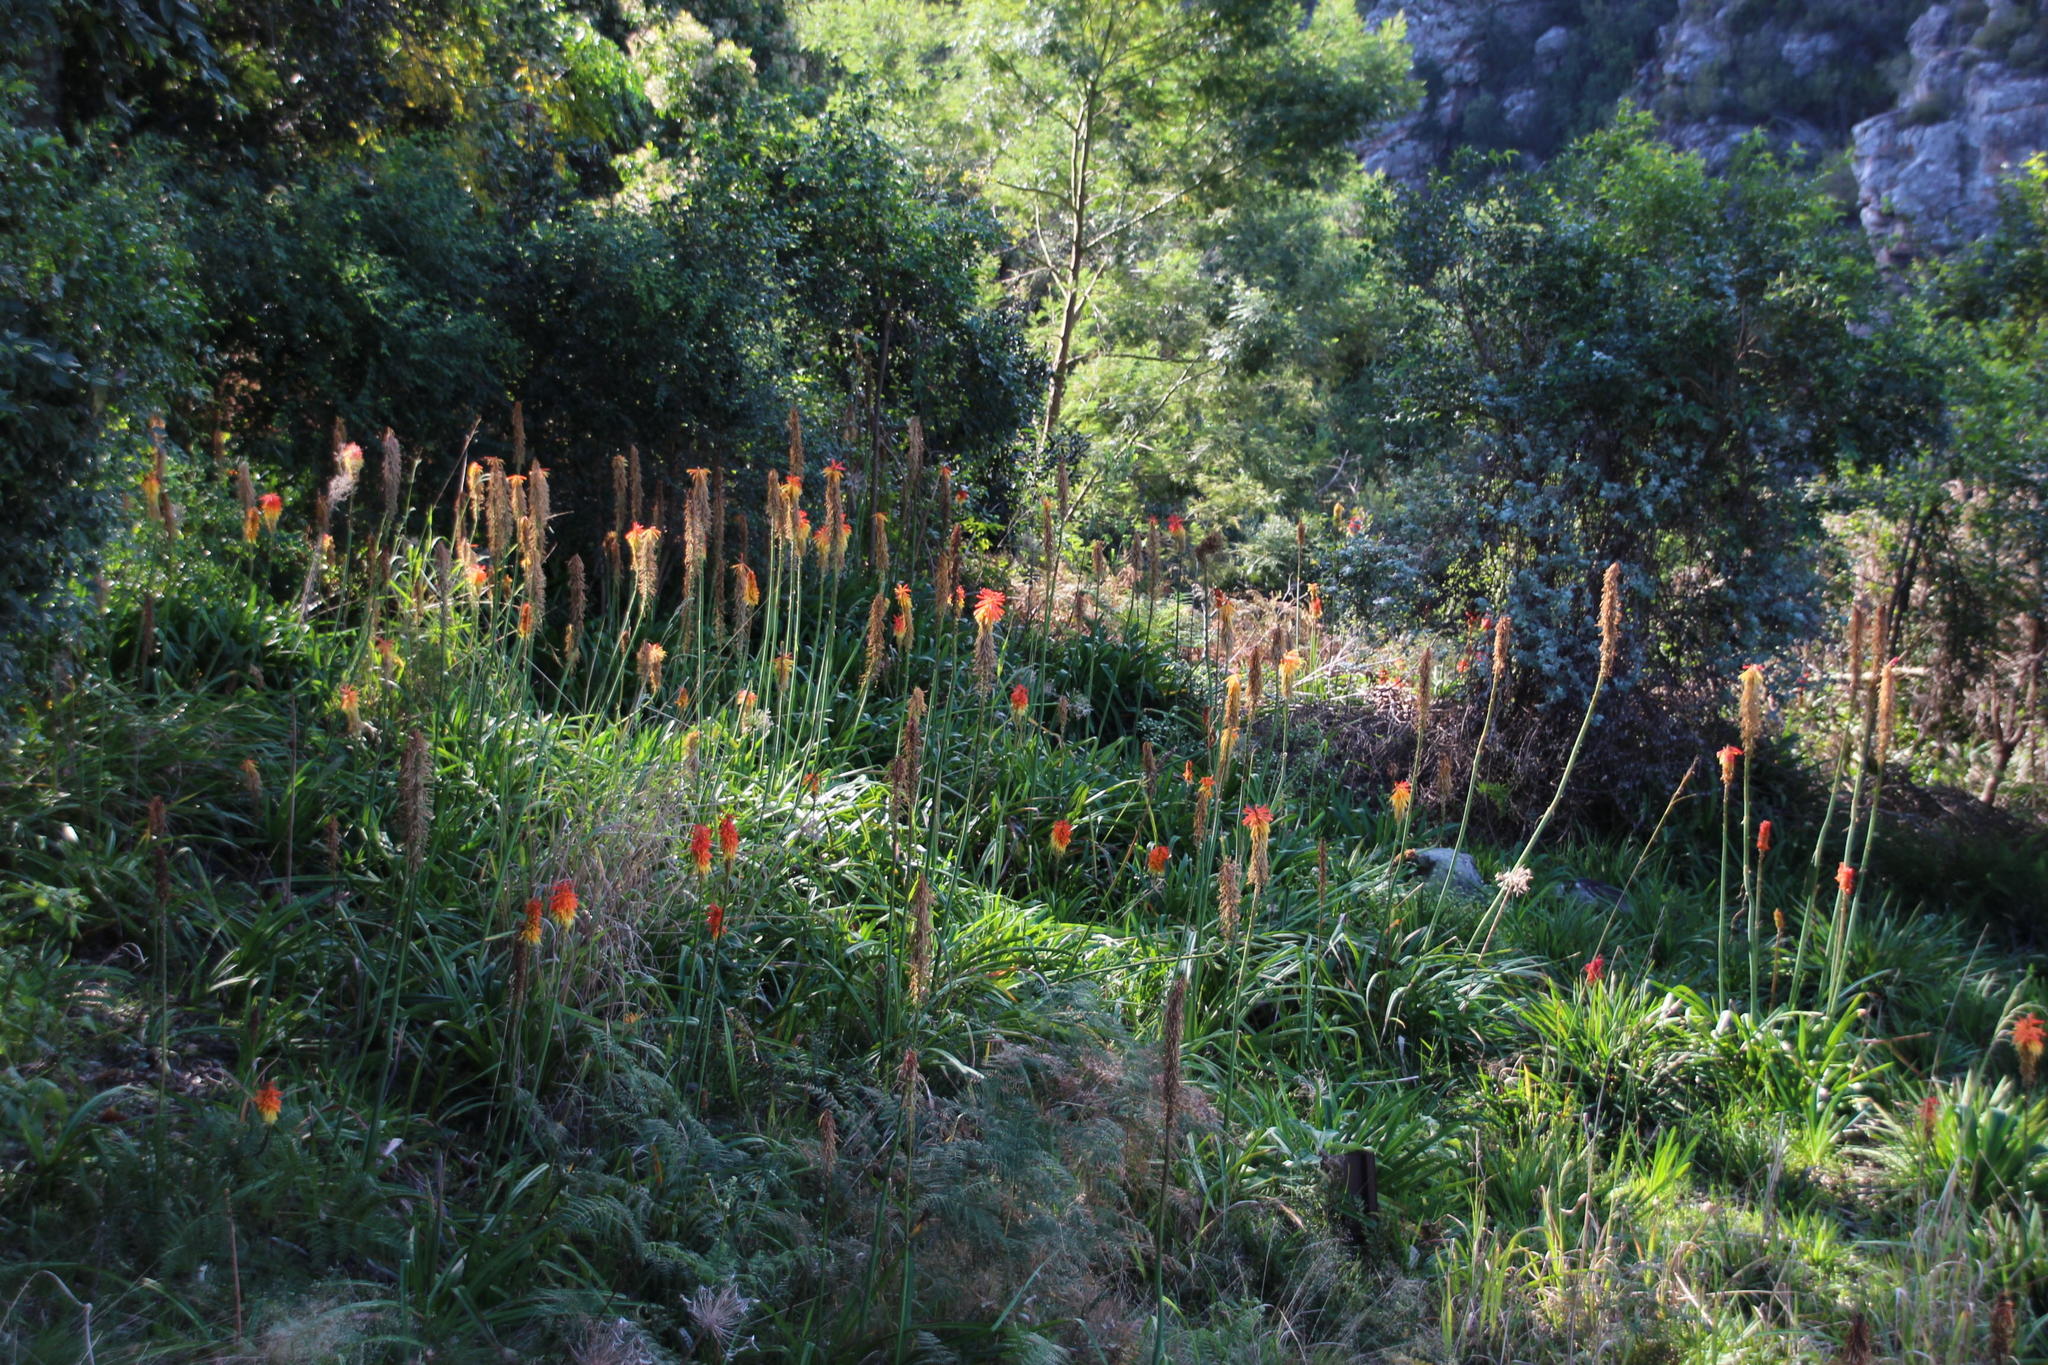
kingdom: Plantae
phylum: Tracheophyta
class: Liliopsida
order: Asparagales
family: Asphodelaceae
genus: Kniphofia
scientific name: Kniphofia bruceae
